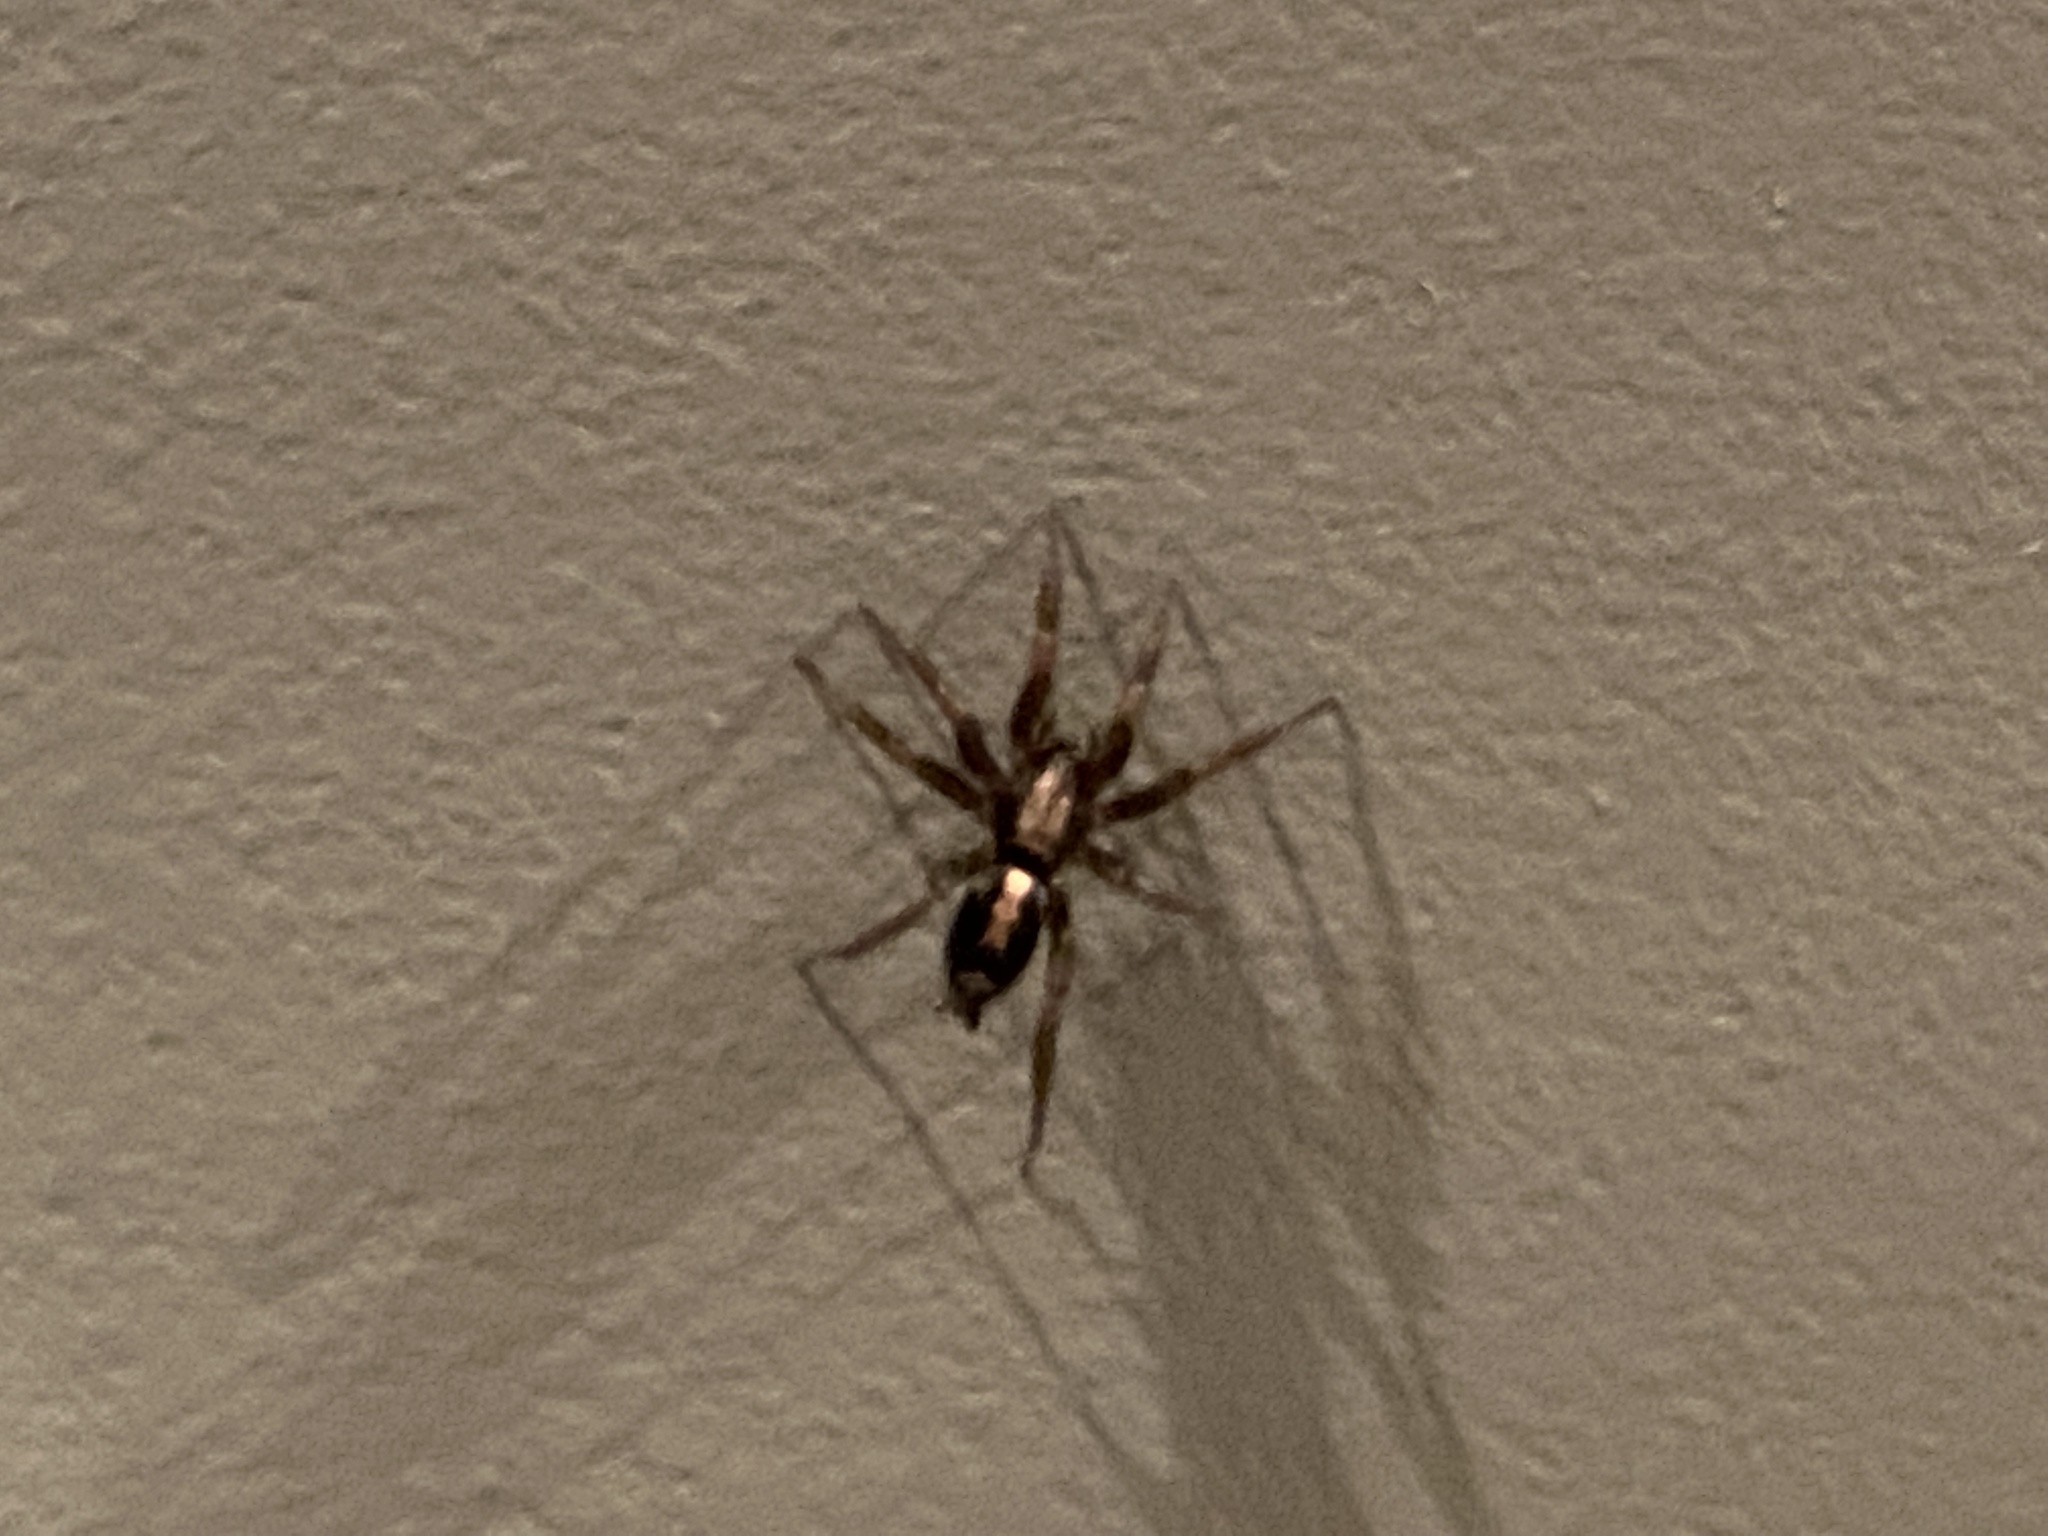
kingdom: Animalia
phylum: Arthropoda
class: Arachnida
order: Araneae
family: Gnaphosidae
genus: Herpyllus
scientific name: Herpyllus ecclesiasticus
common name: Eastern parson spider
